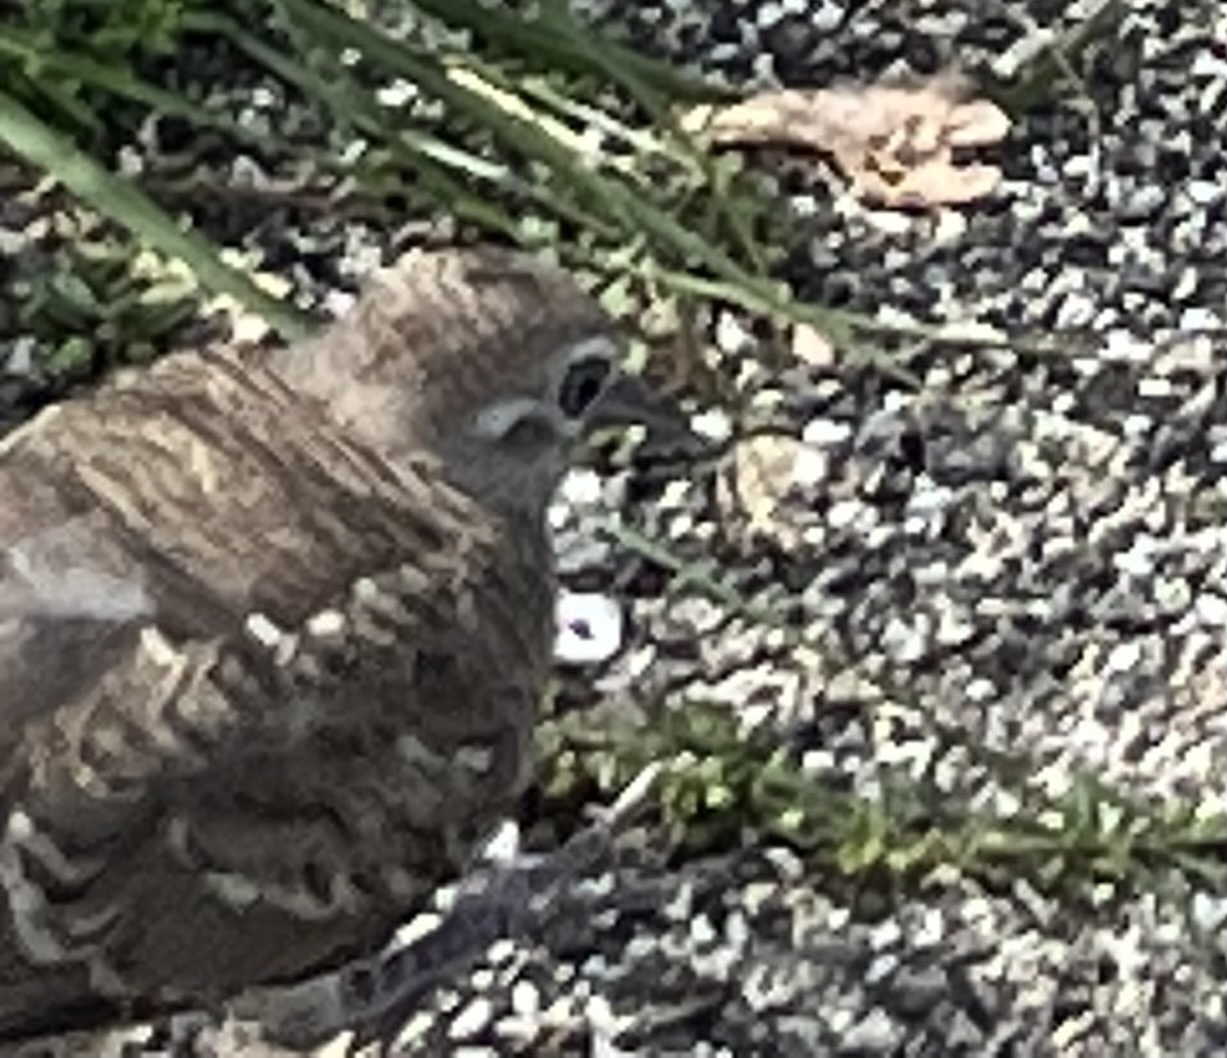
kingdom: Animalia
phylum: Chordata
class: Aves
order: Columbiformes
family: Columbidae
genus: Geopelia
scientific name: Geopelia striata
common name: Zebra dove
